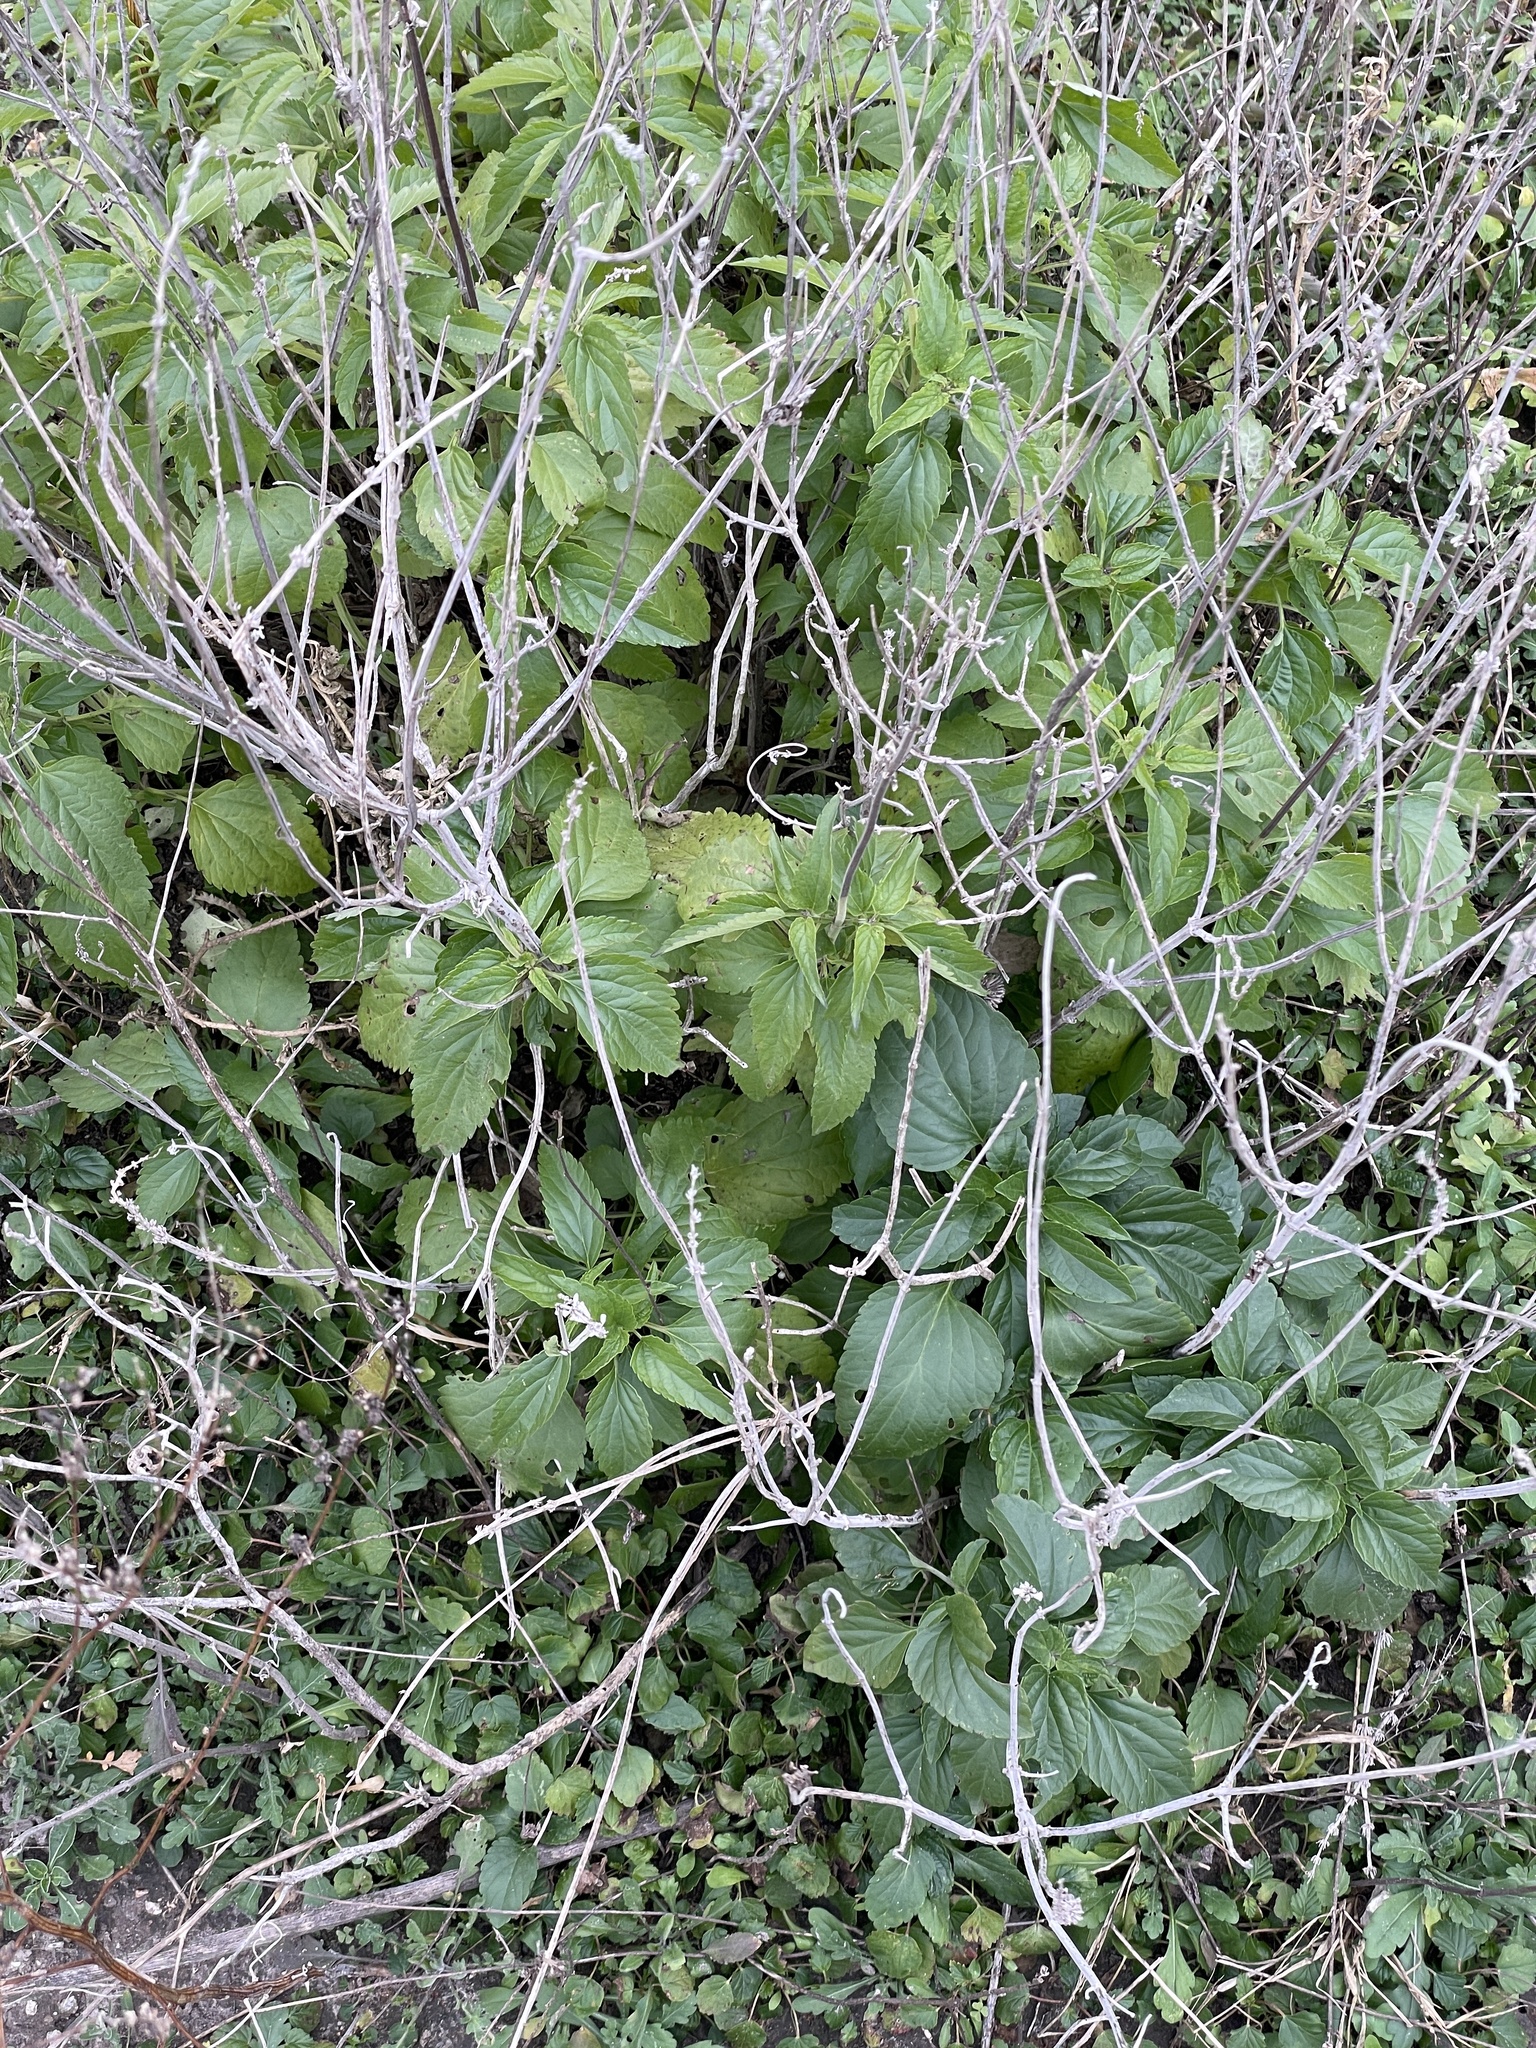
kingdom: Plantae
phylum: Tracheophyta
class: Magnoliopsida
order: Lamiales
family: Lamiaceae
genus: Salvia
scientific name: Salvia farinacea
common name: Mealy sage
